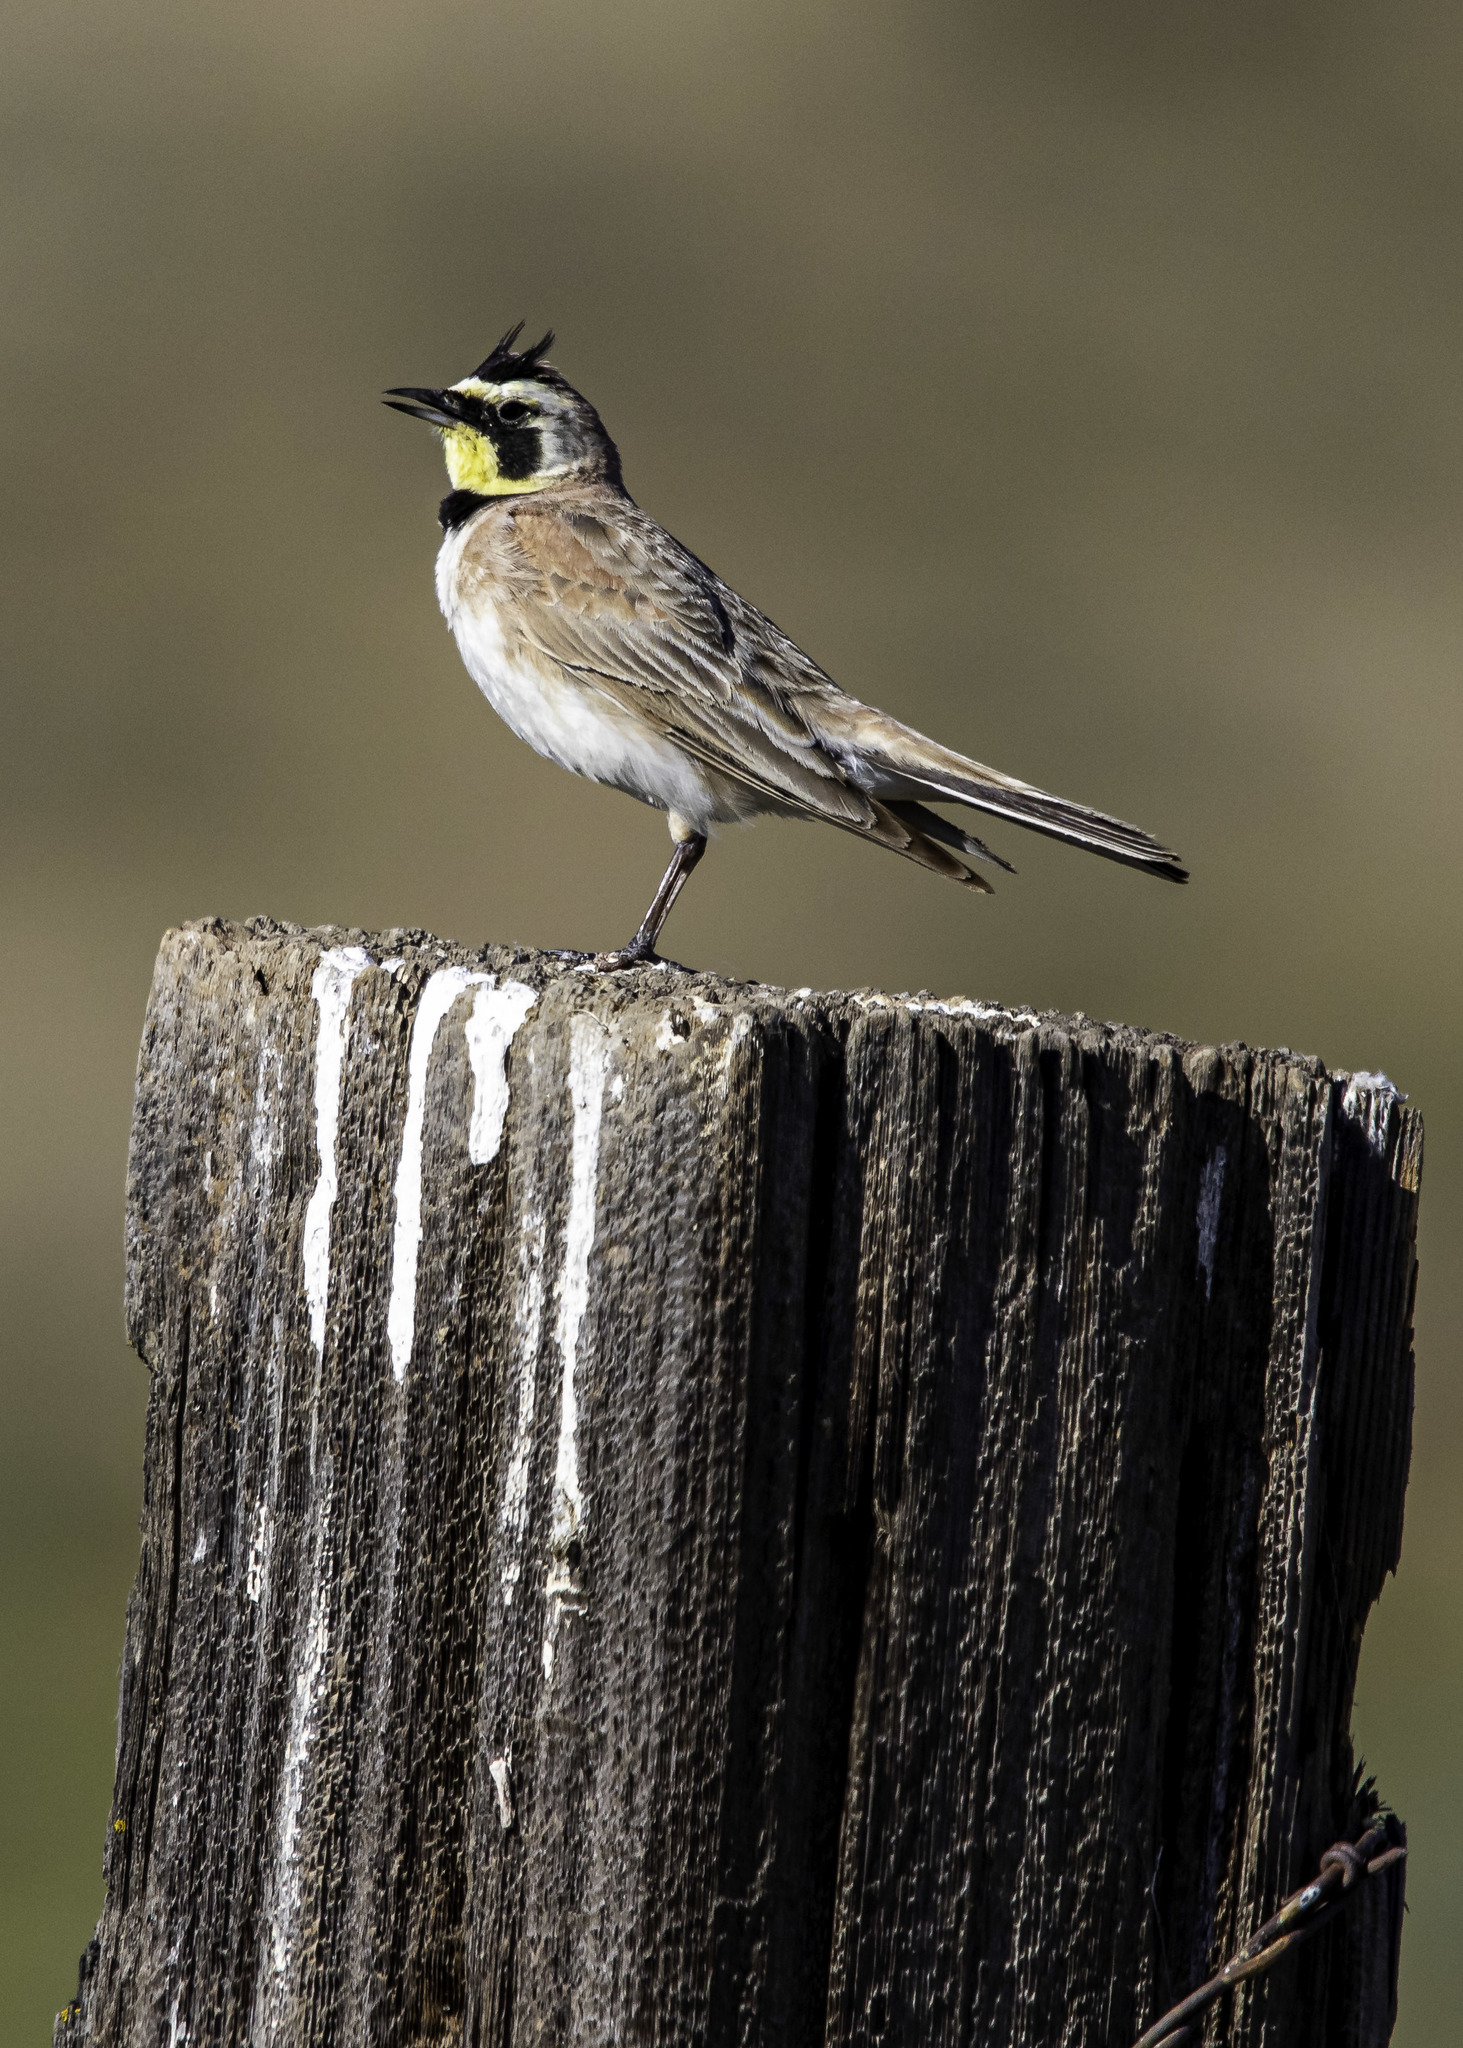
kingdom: Animalia
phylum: Chordata
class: Aves
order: Passeriformes
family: Alaudidae
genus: Eremophila
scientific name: Eremophila alpestris
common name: Horned lark
